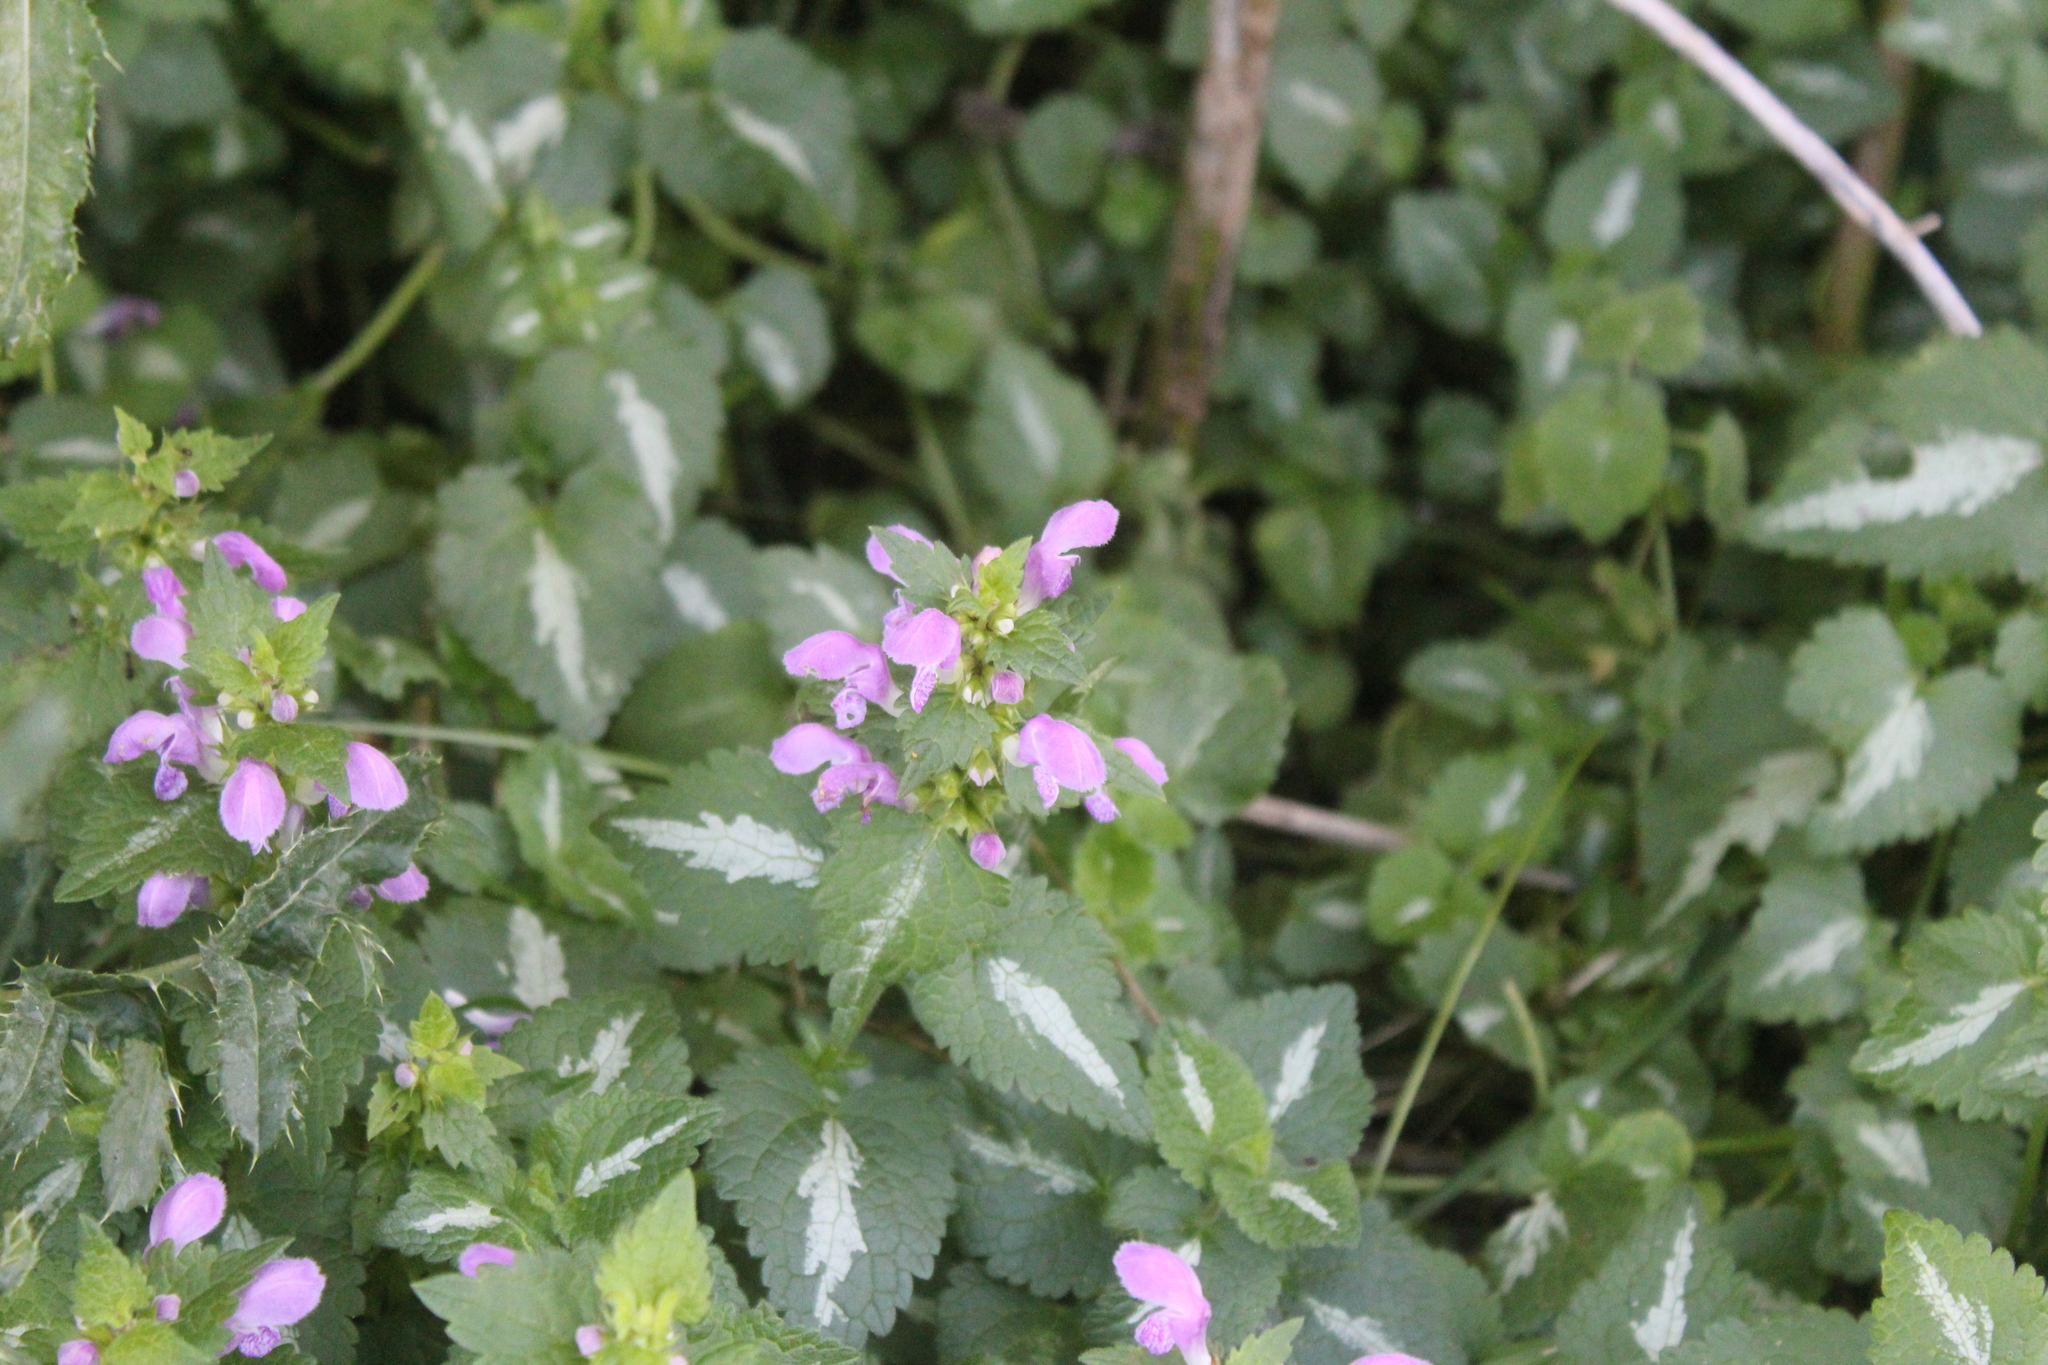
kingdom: Plantae
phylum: Tracheophyta
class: Magnoliopsida
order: Lamiales
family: Lamiaceae
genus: Lamium
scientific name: Lamium maculatum
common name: Spotted dead-nettle
